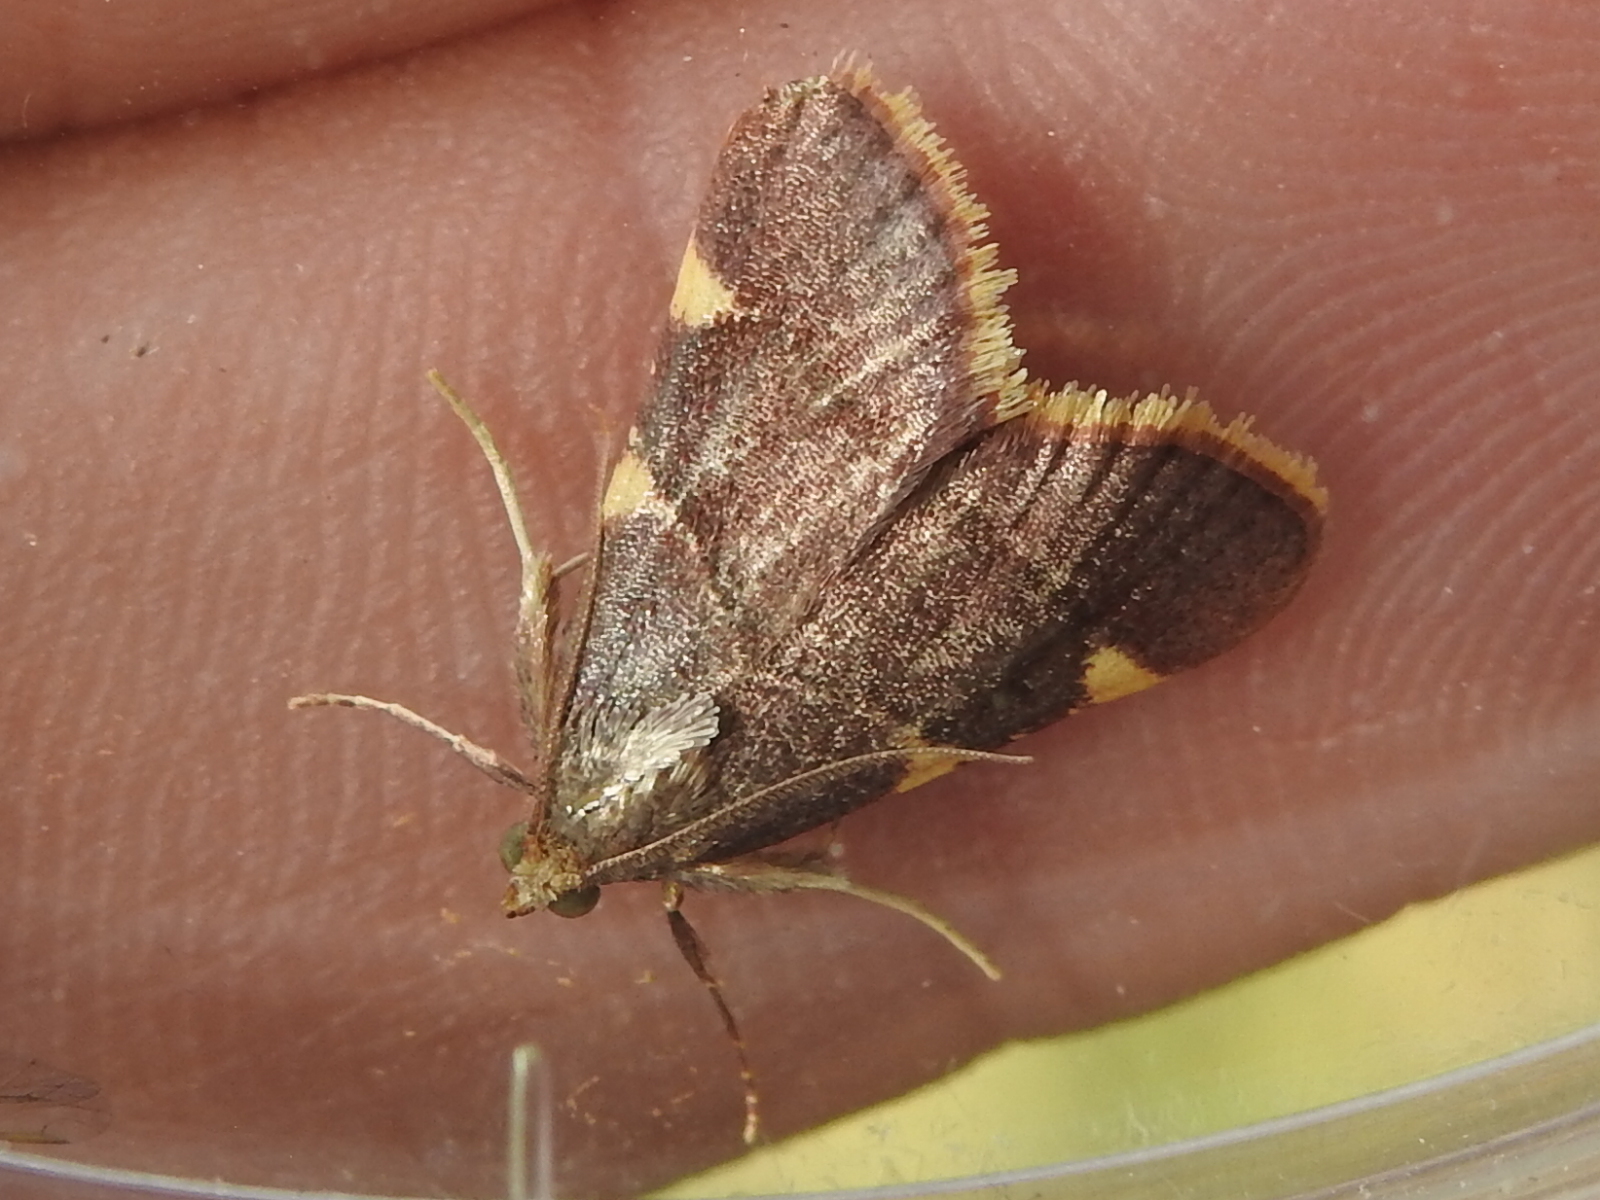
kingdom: Animalia
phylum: Arthropoda
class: Insecta
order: Lepidoptera
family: Pyralidae
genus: Hypsopygia
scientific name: Hypsopygia olinalis
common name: Yellow-fringed dolichomia moth
